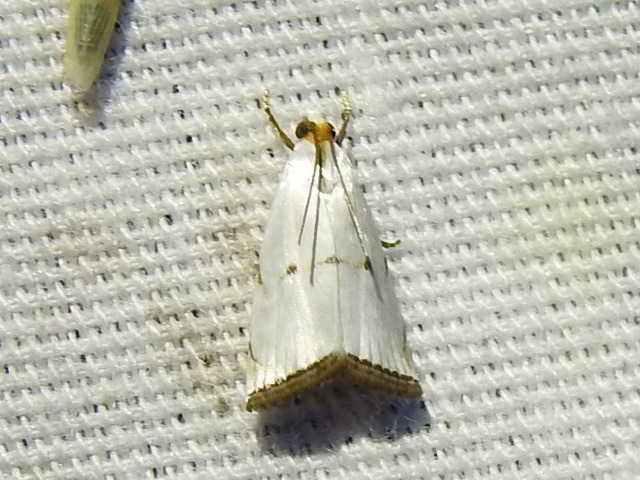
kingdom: Animalia
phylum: Arthropoda
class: Insecta
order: Lepidoptera
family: Crambidae
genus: Argyria
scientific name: Argyria pusillalis
